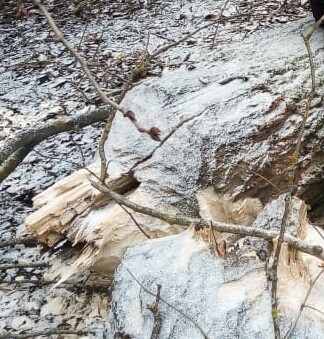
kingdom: Animalia
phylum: Chordata
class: Mammalia
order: Rodentia
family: Castoridae
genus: Castor
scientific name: Castor fiber
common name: Eurasian beaver
